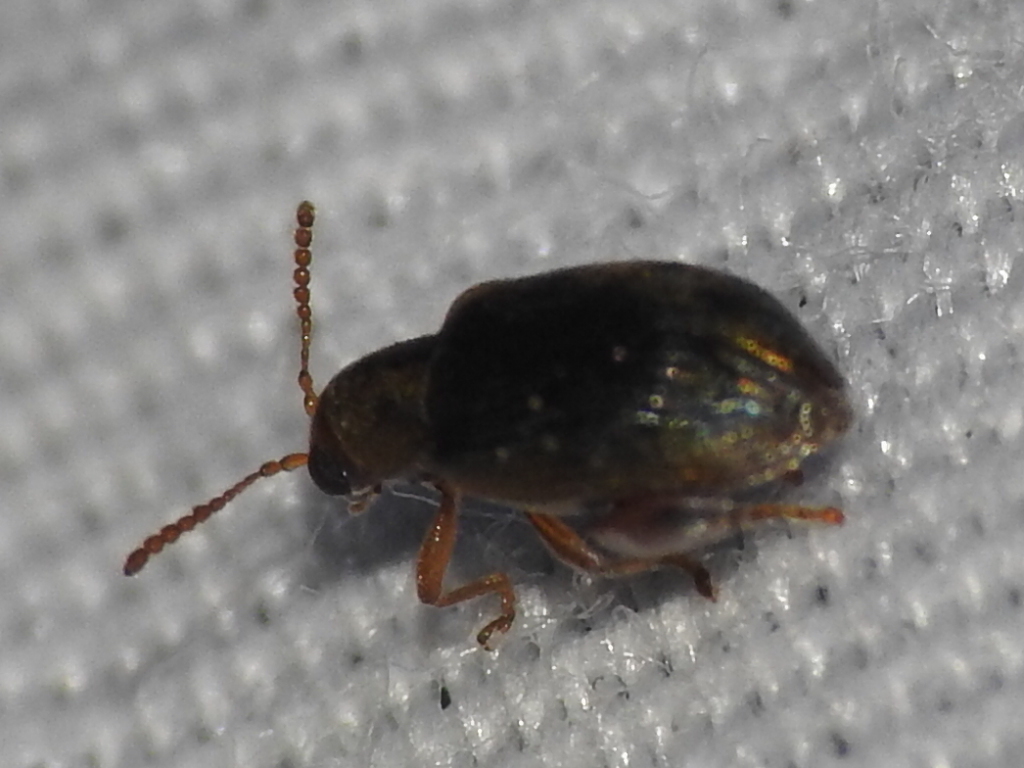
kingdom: Animalia
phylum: Arthropoda
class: Insecta
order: Coleoptera
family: Chrysomelidae
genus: Pseudolampis
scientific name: Pseudolampis guttata
